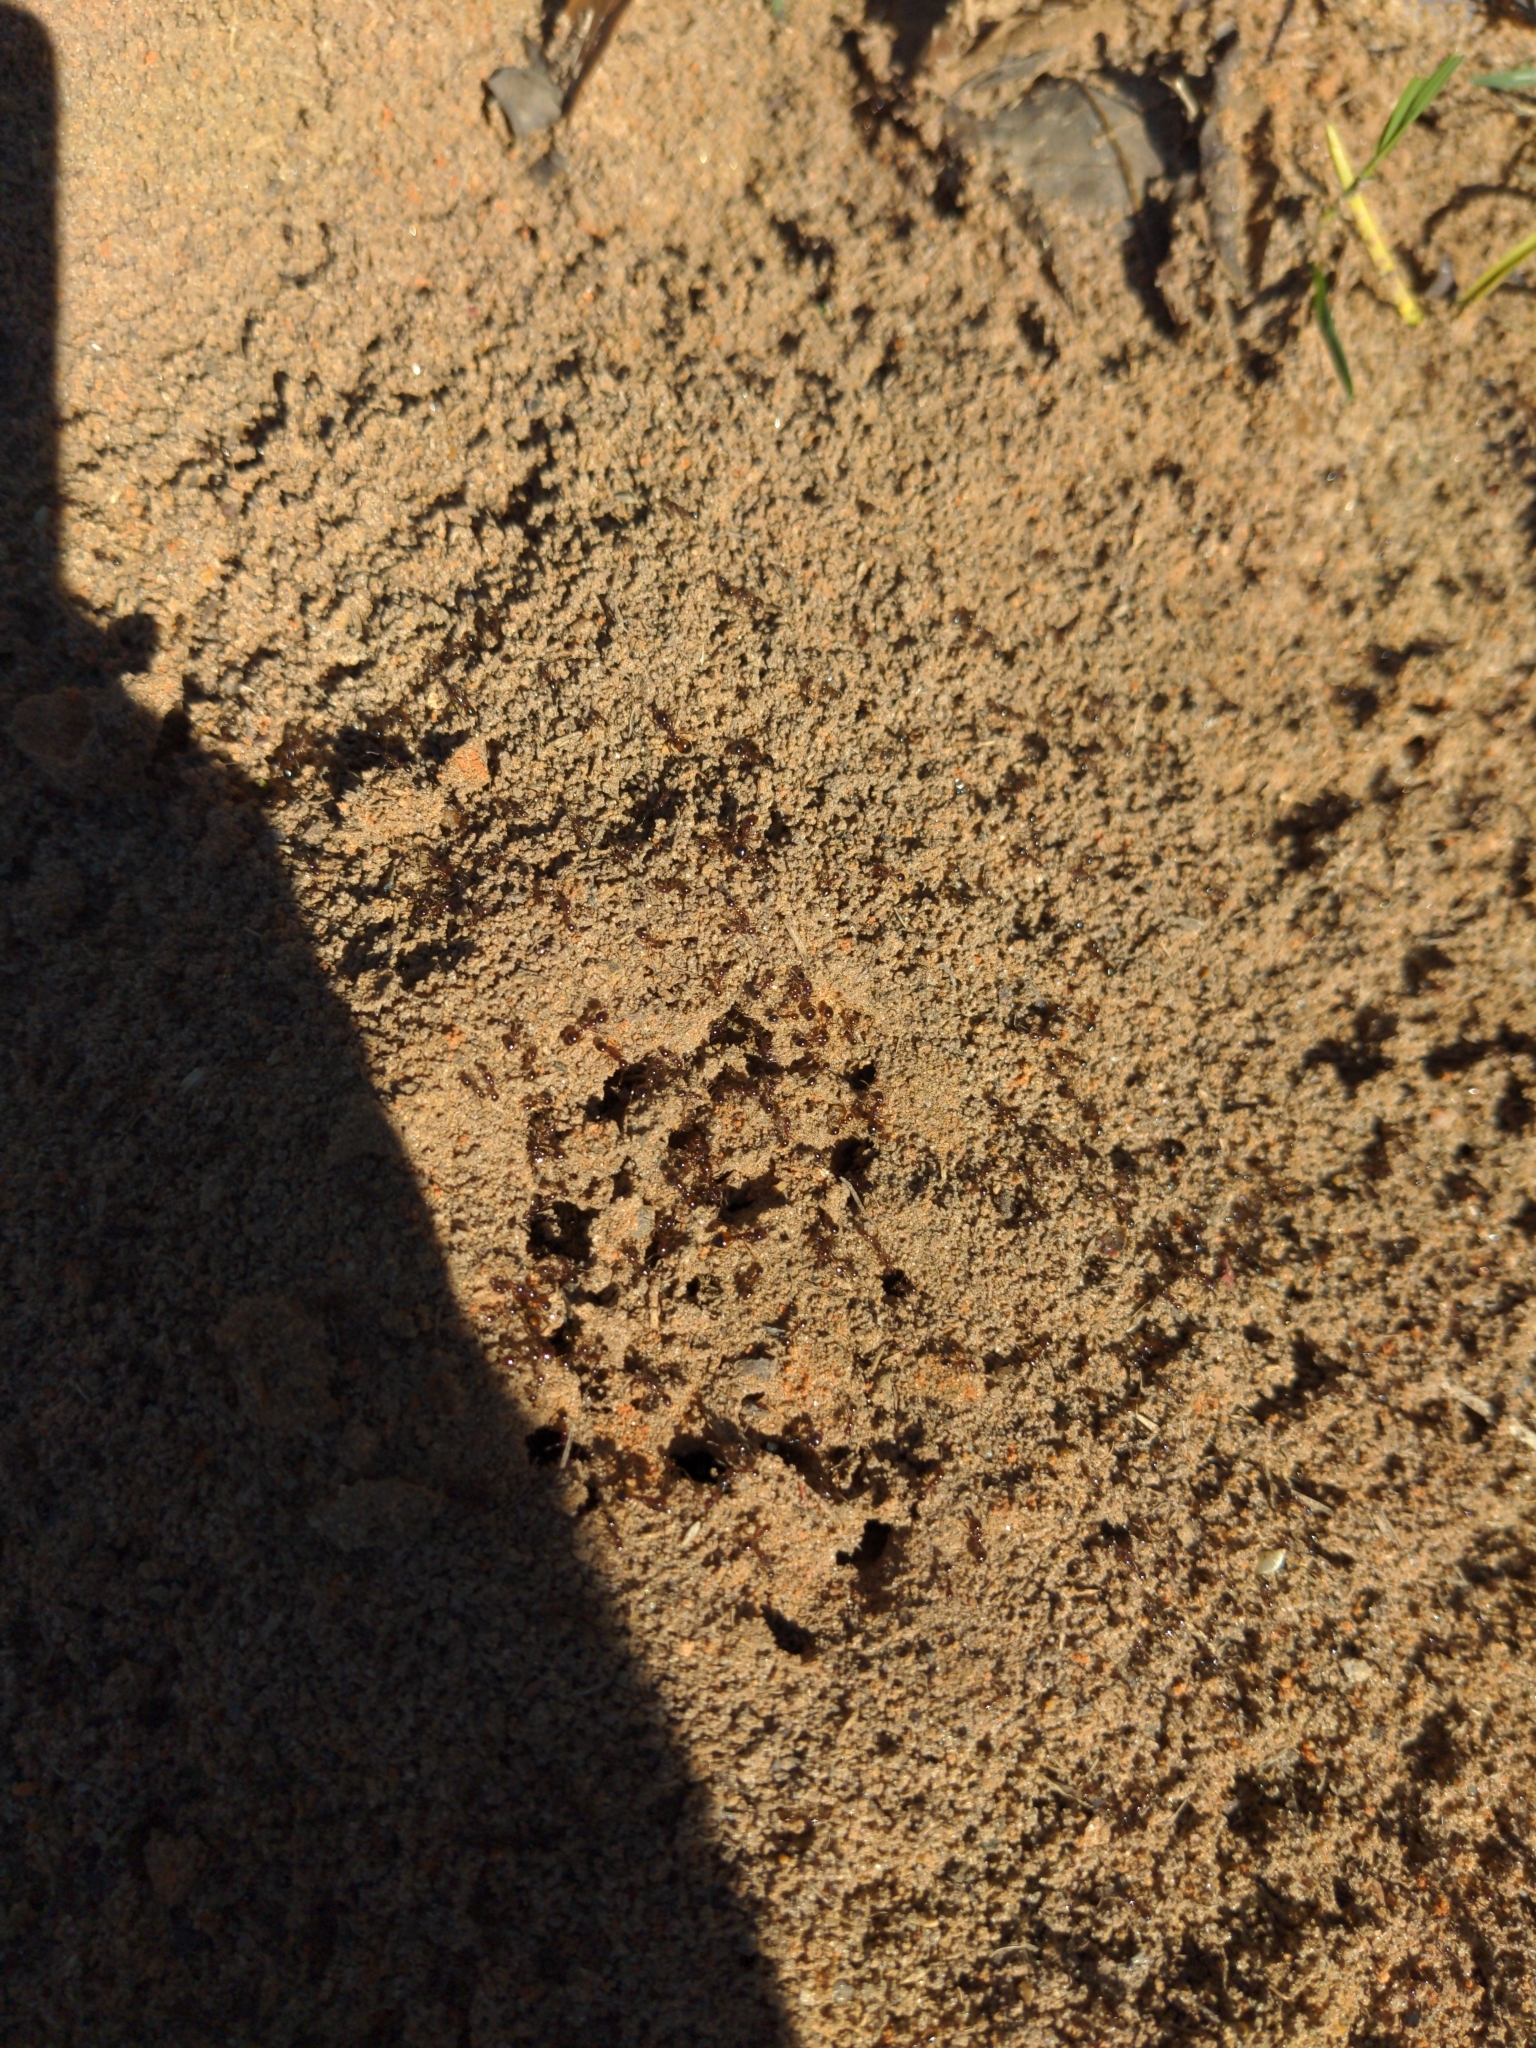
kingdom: Animalia
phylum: Arthropoda
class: Insecta
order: Hymenoptera
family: Formicidae
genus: Solenopsis
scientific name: Solenopsis invicta
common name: Red imported fire ant
